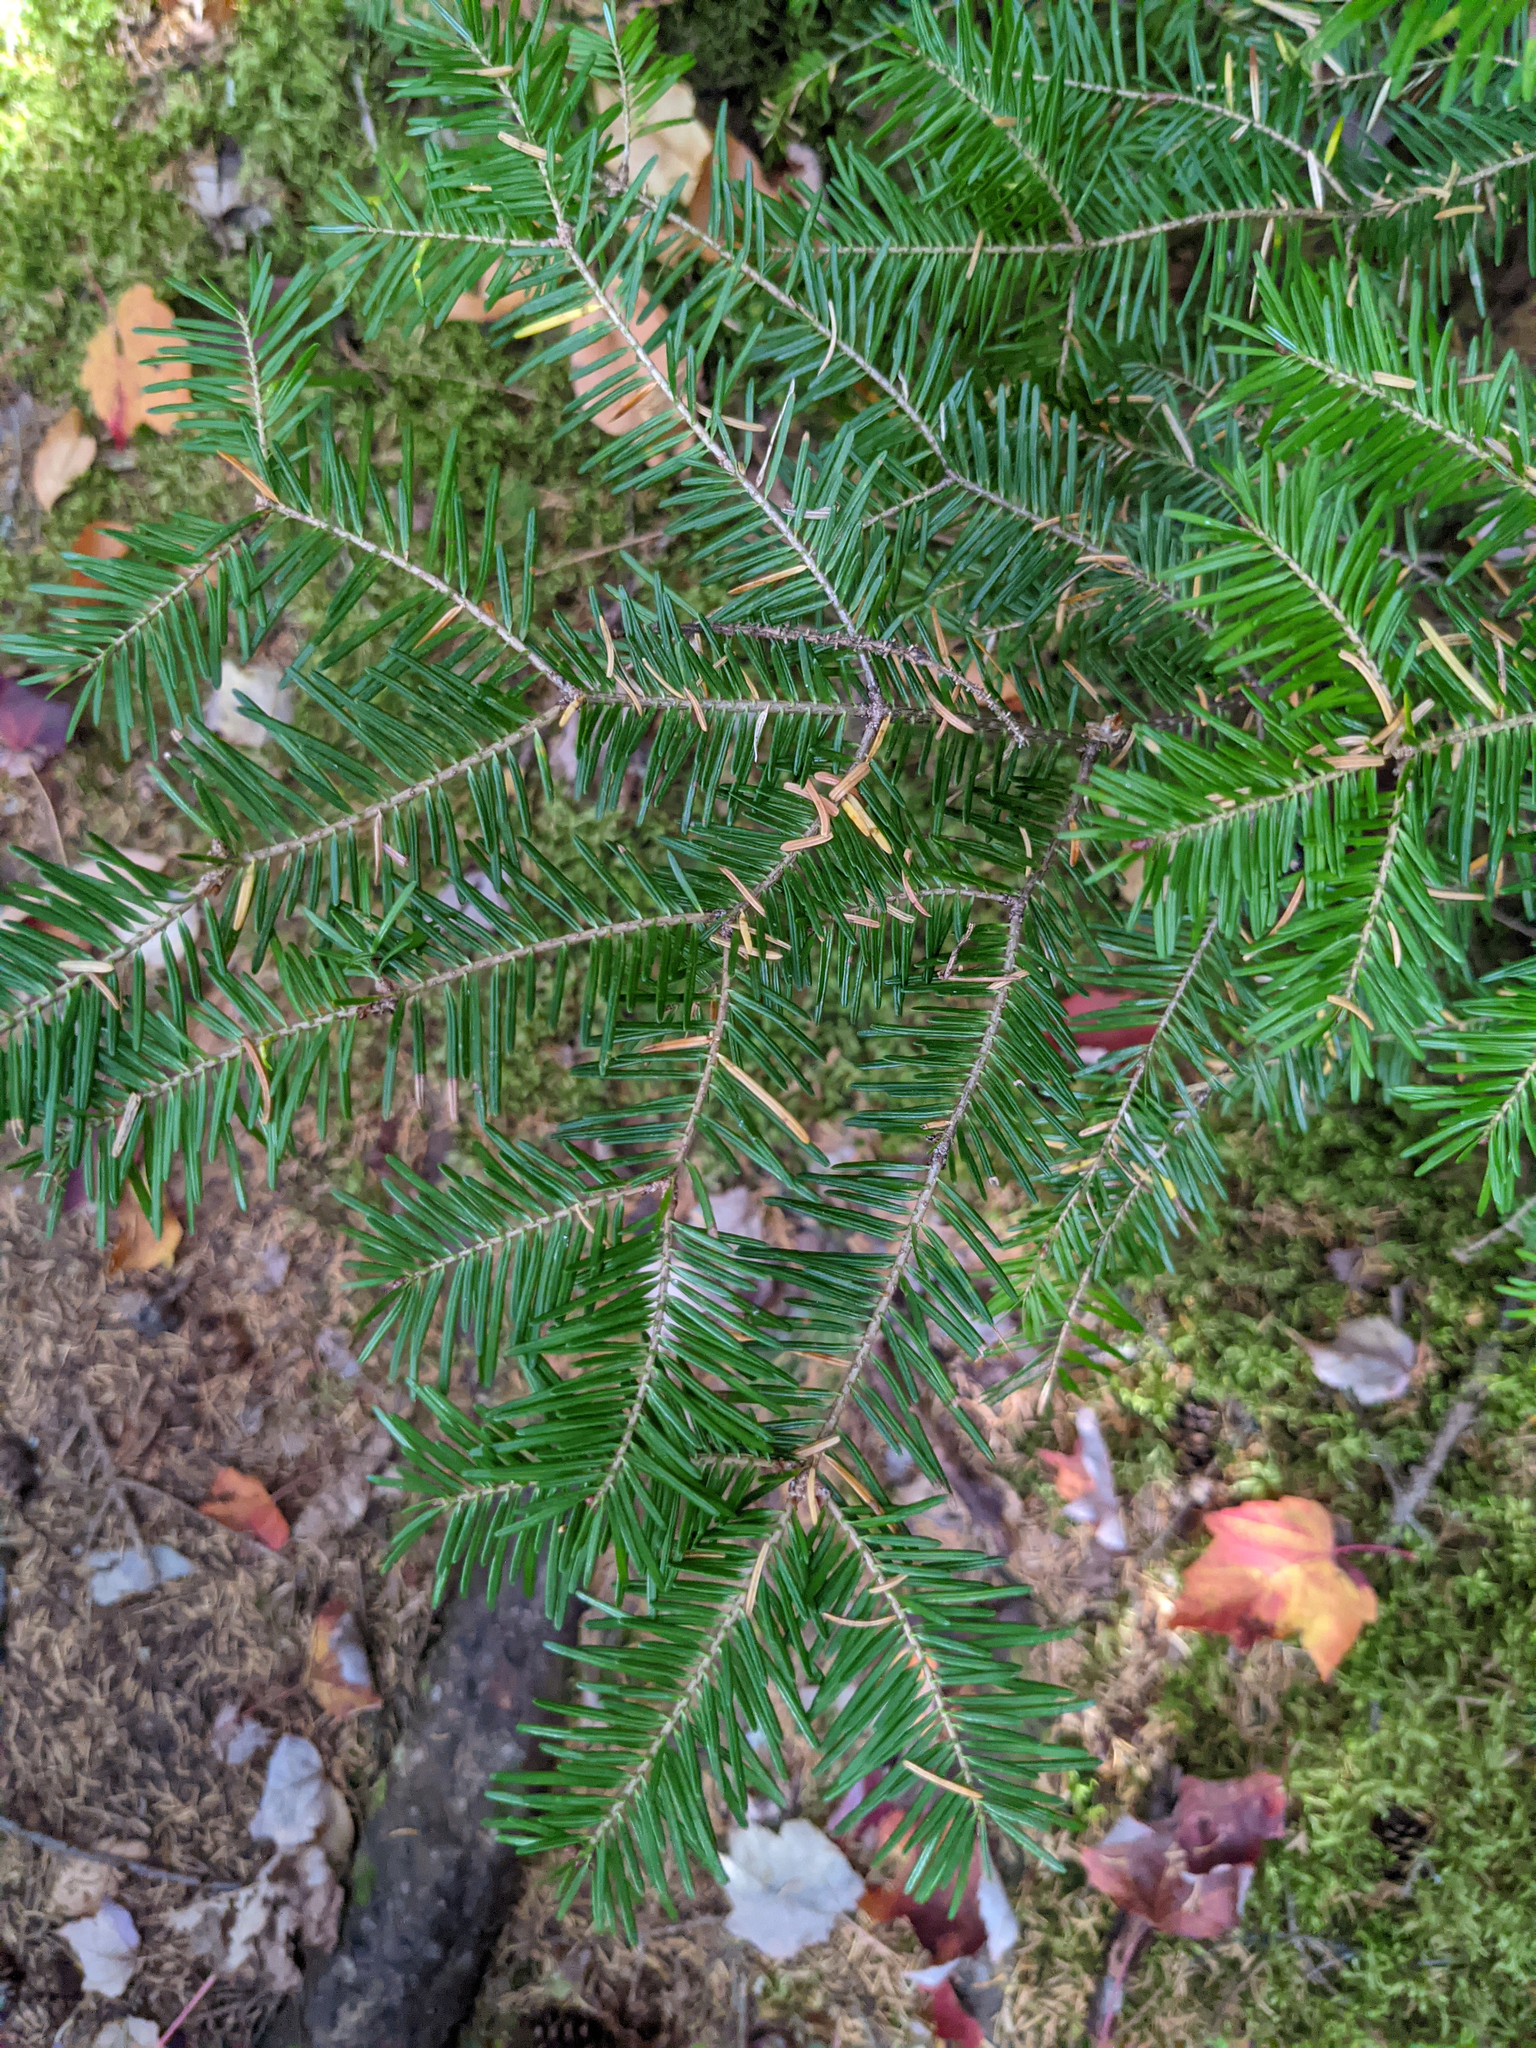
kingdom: Plantae
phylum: Tracheophyta
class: Pinopsida
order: Pinales
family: Pinaceae
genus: Abies
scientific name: Abies balsamea
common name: Balsam fir
